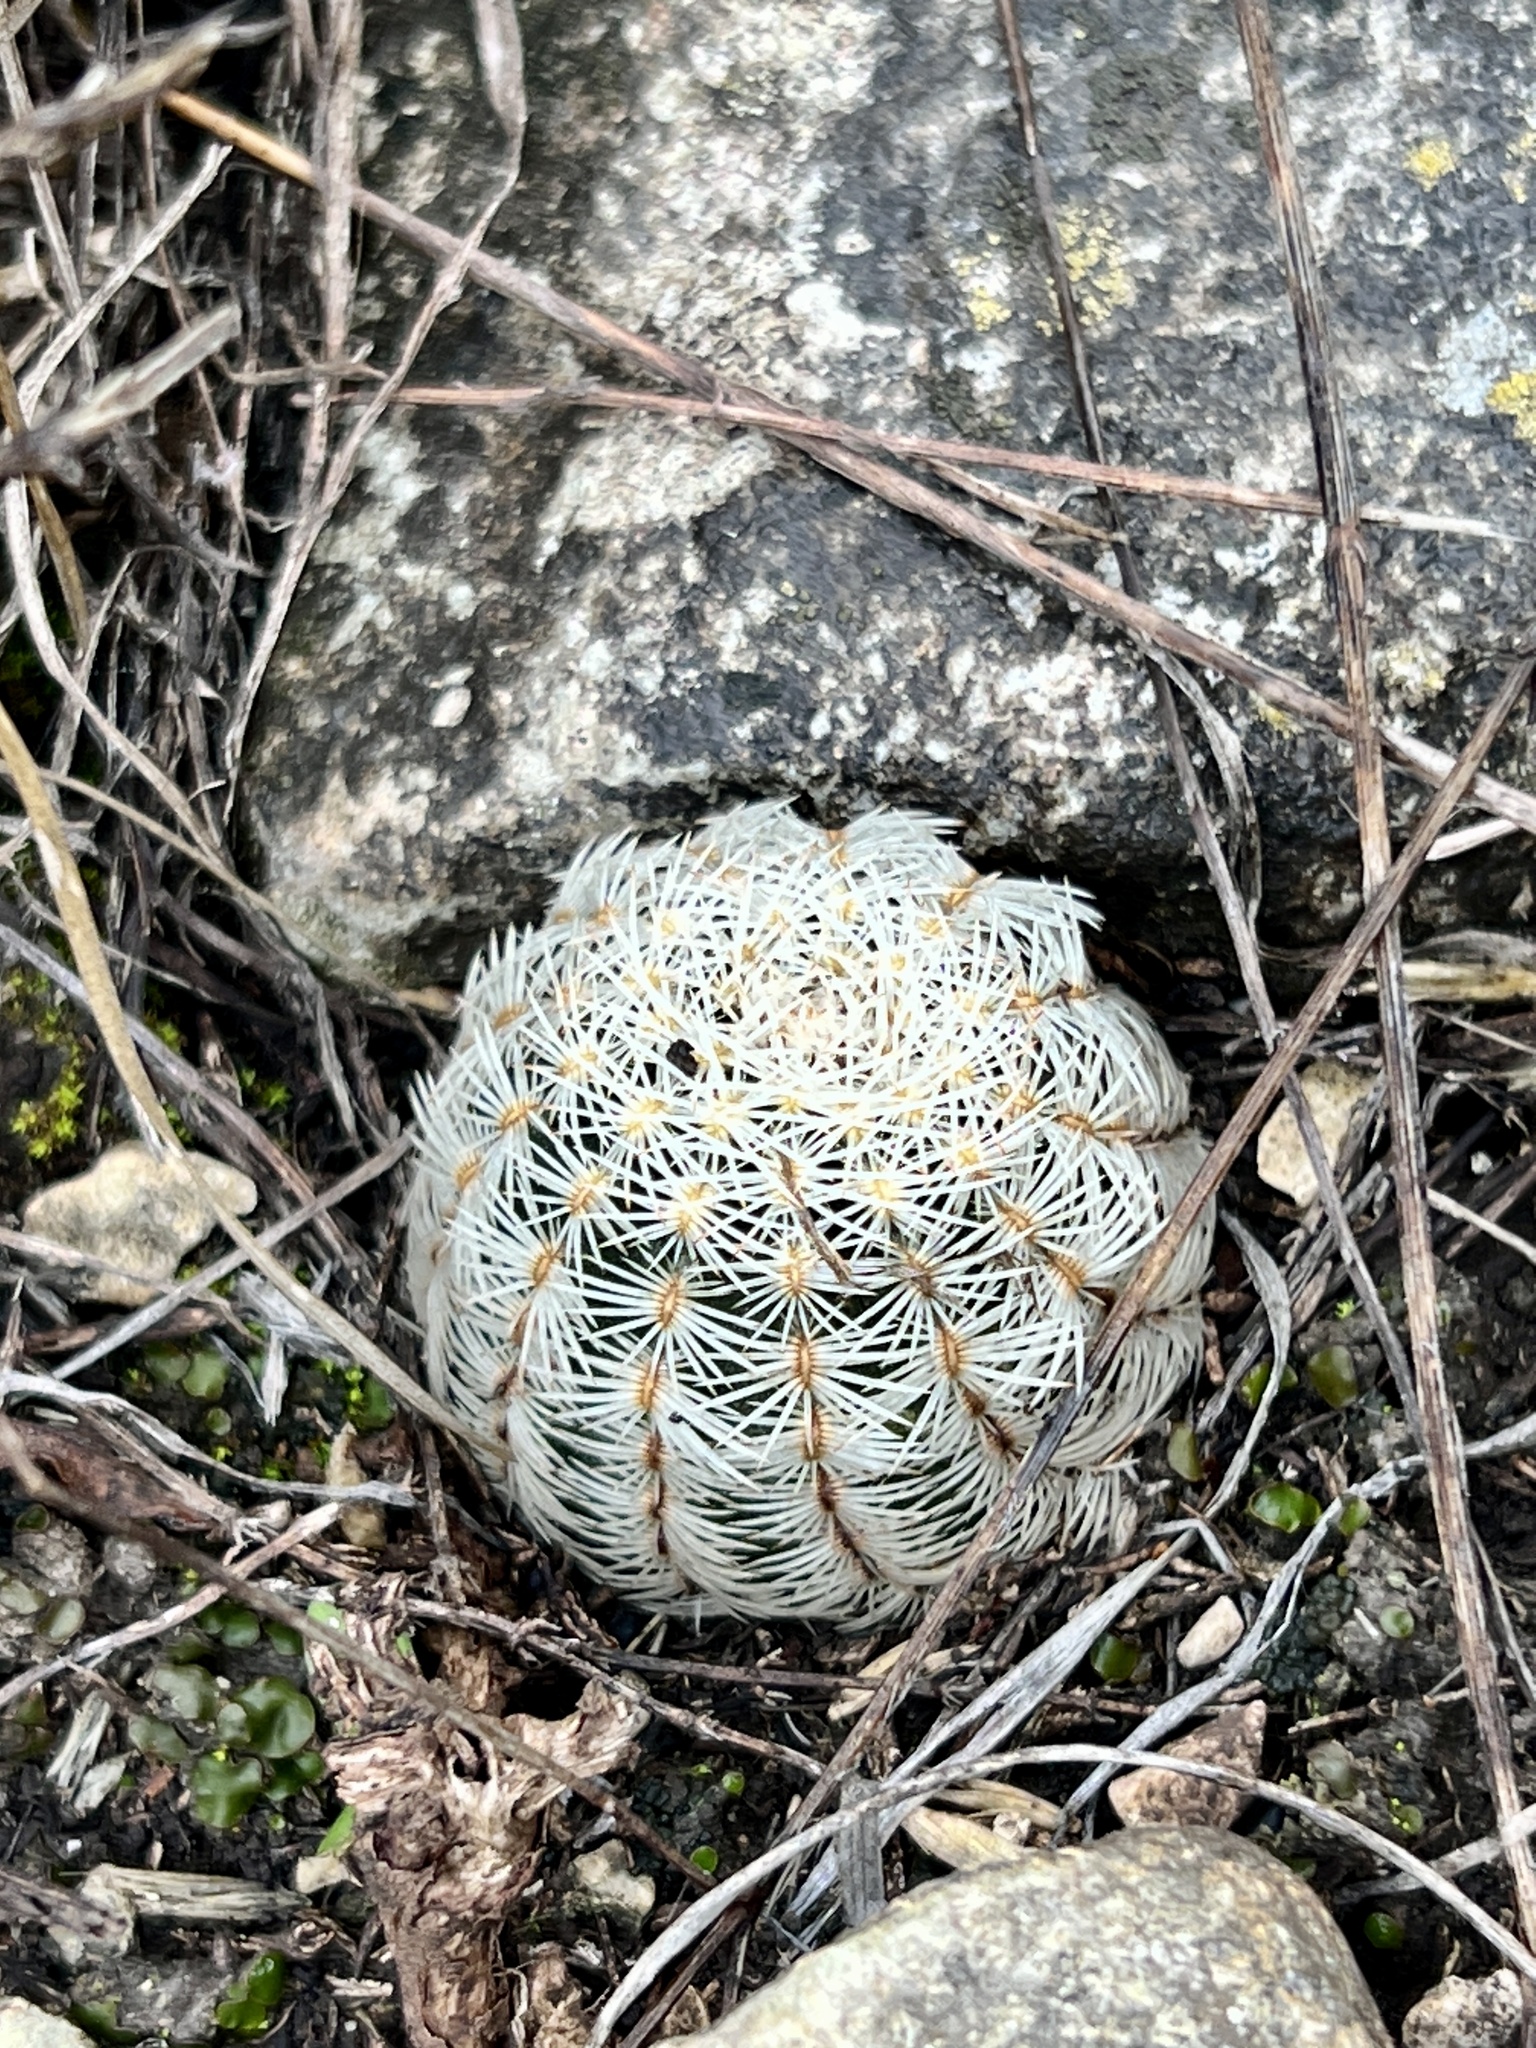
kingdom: Plantae
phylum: Tracheophyta
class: Magnoliopsida
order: Caryophyllales
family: Cactaceae
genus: Echinocereus
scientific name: Echinocereus reichenbachii
